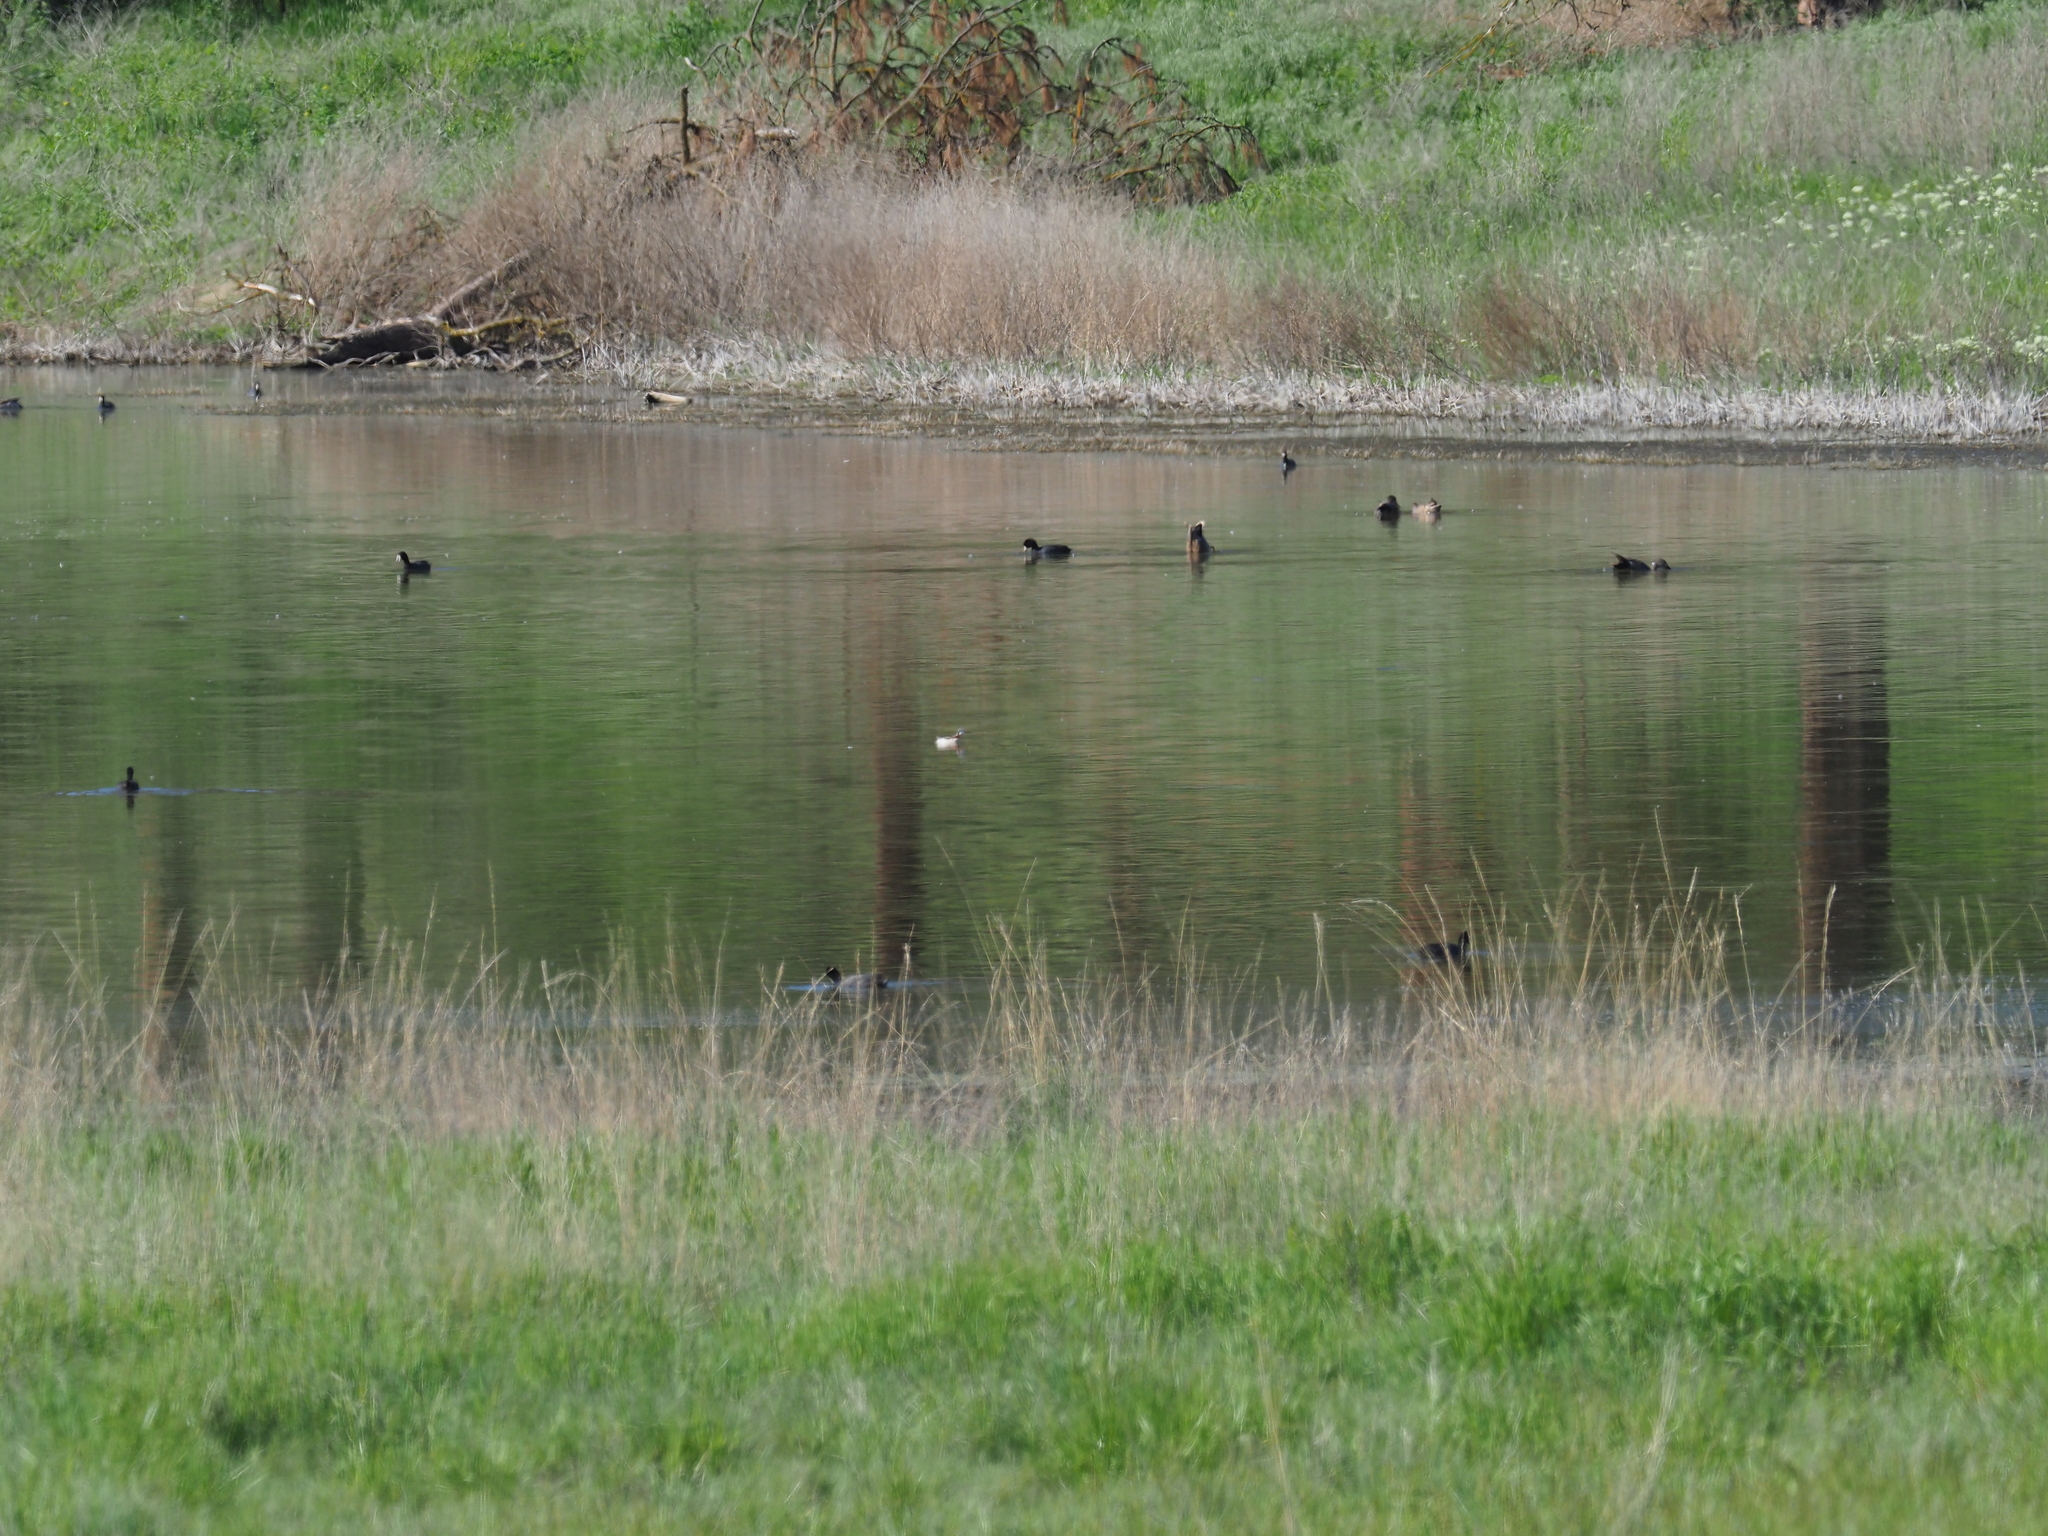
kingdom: Animalia
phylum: Chordata
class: Aves
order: Charadriiformes
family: Scolopacidae
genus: Phalaropus
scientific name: Phalaropus tricolor
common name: Wilson's phalarope
